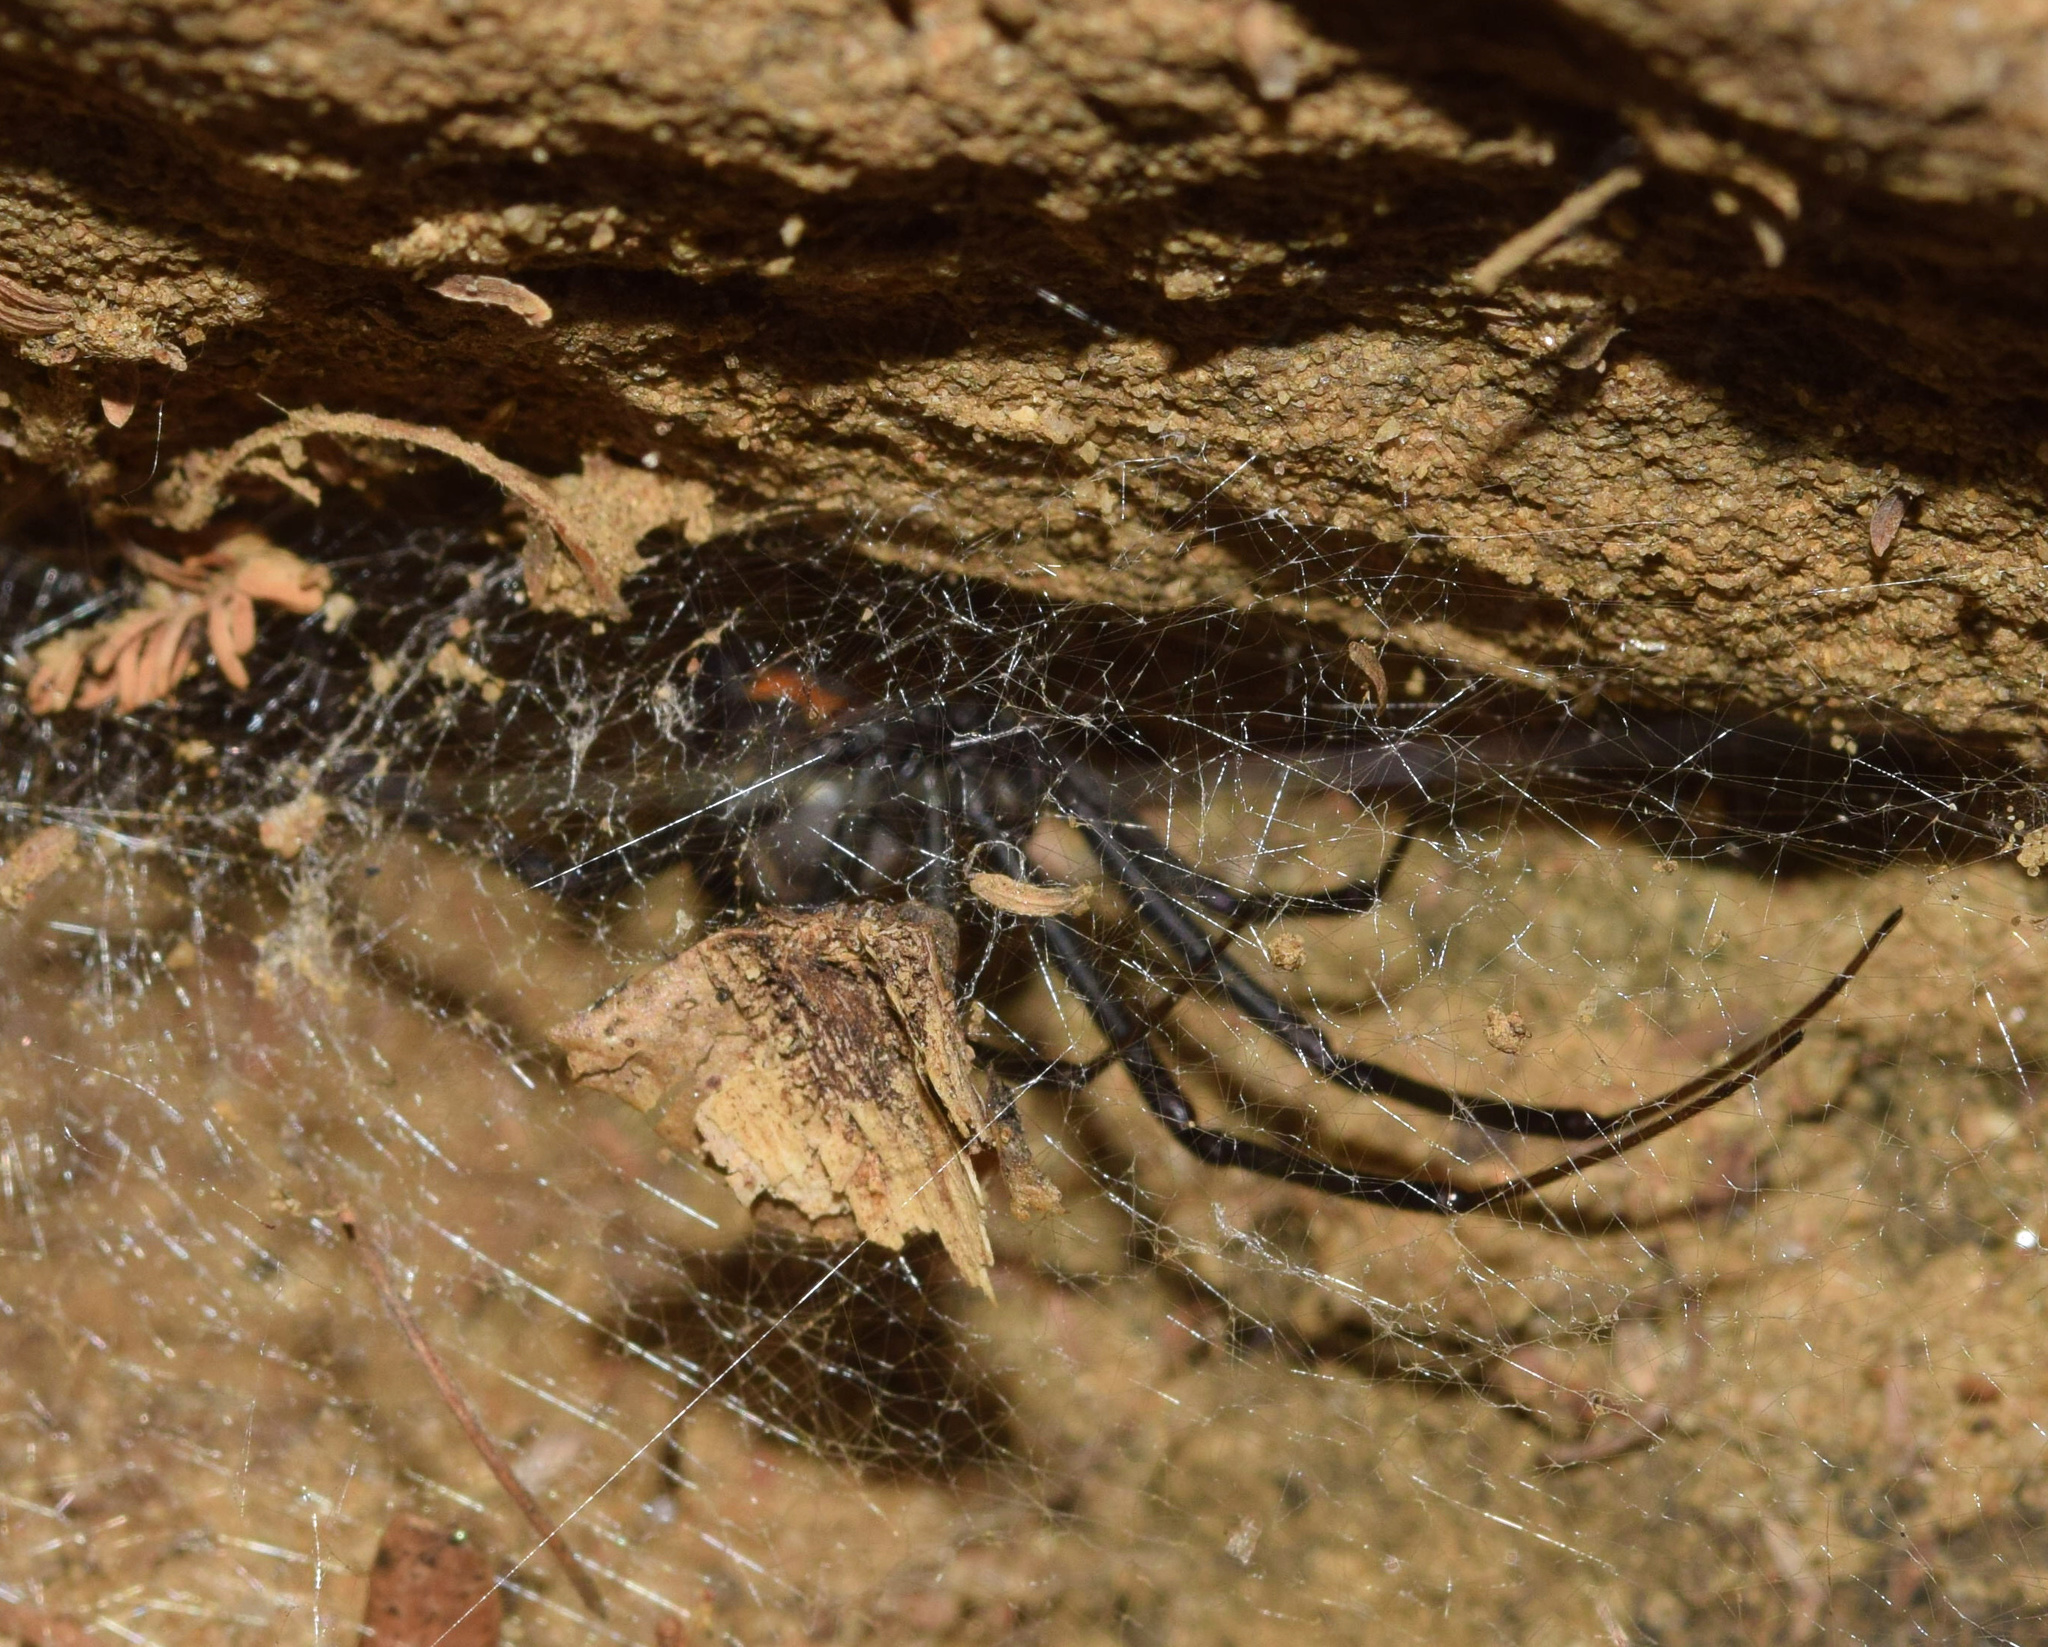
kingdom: Animalia
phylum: Arthropoda
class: Arachnida
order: Araneae
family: Theridiidae
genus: Latrodectus
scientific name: Latrodectus geometricus
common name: Brown widow spider
